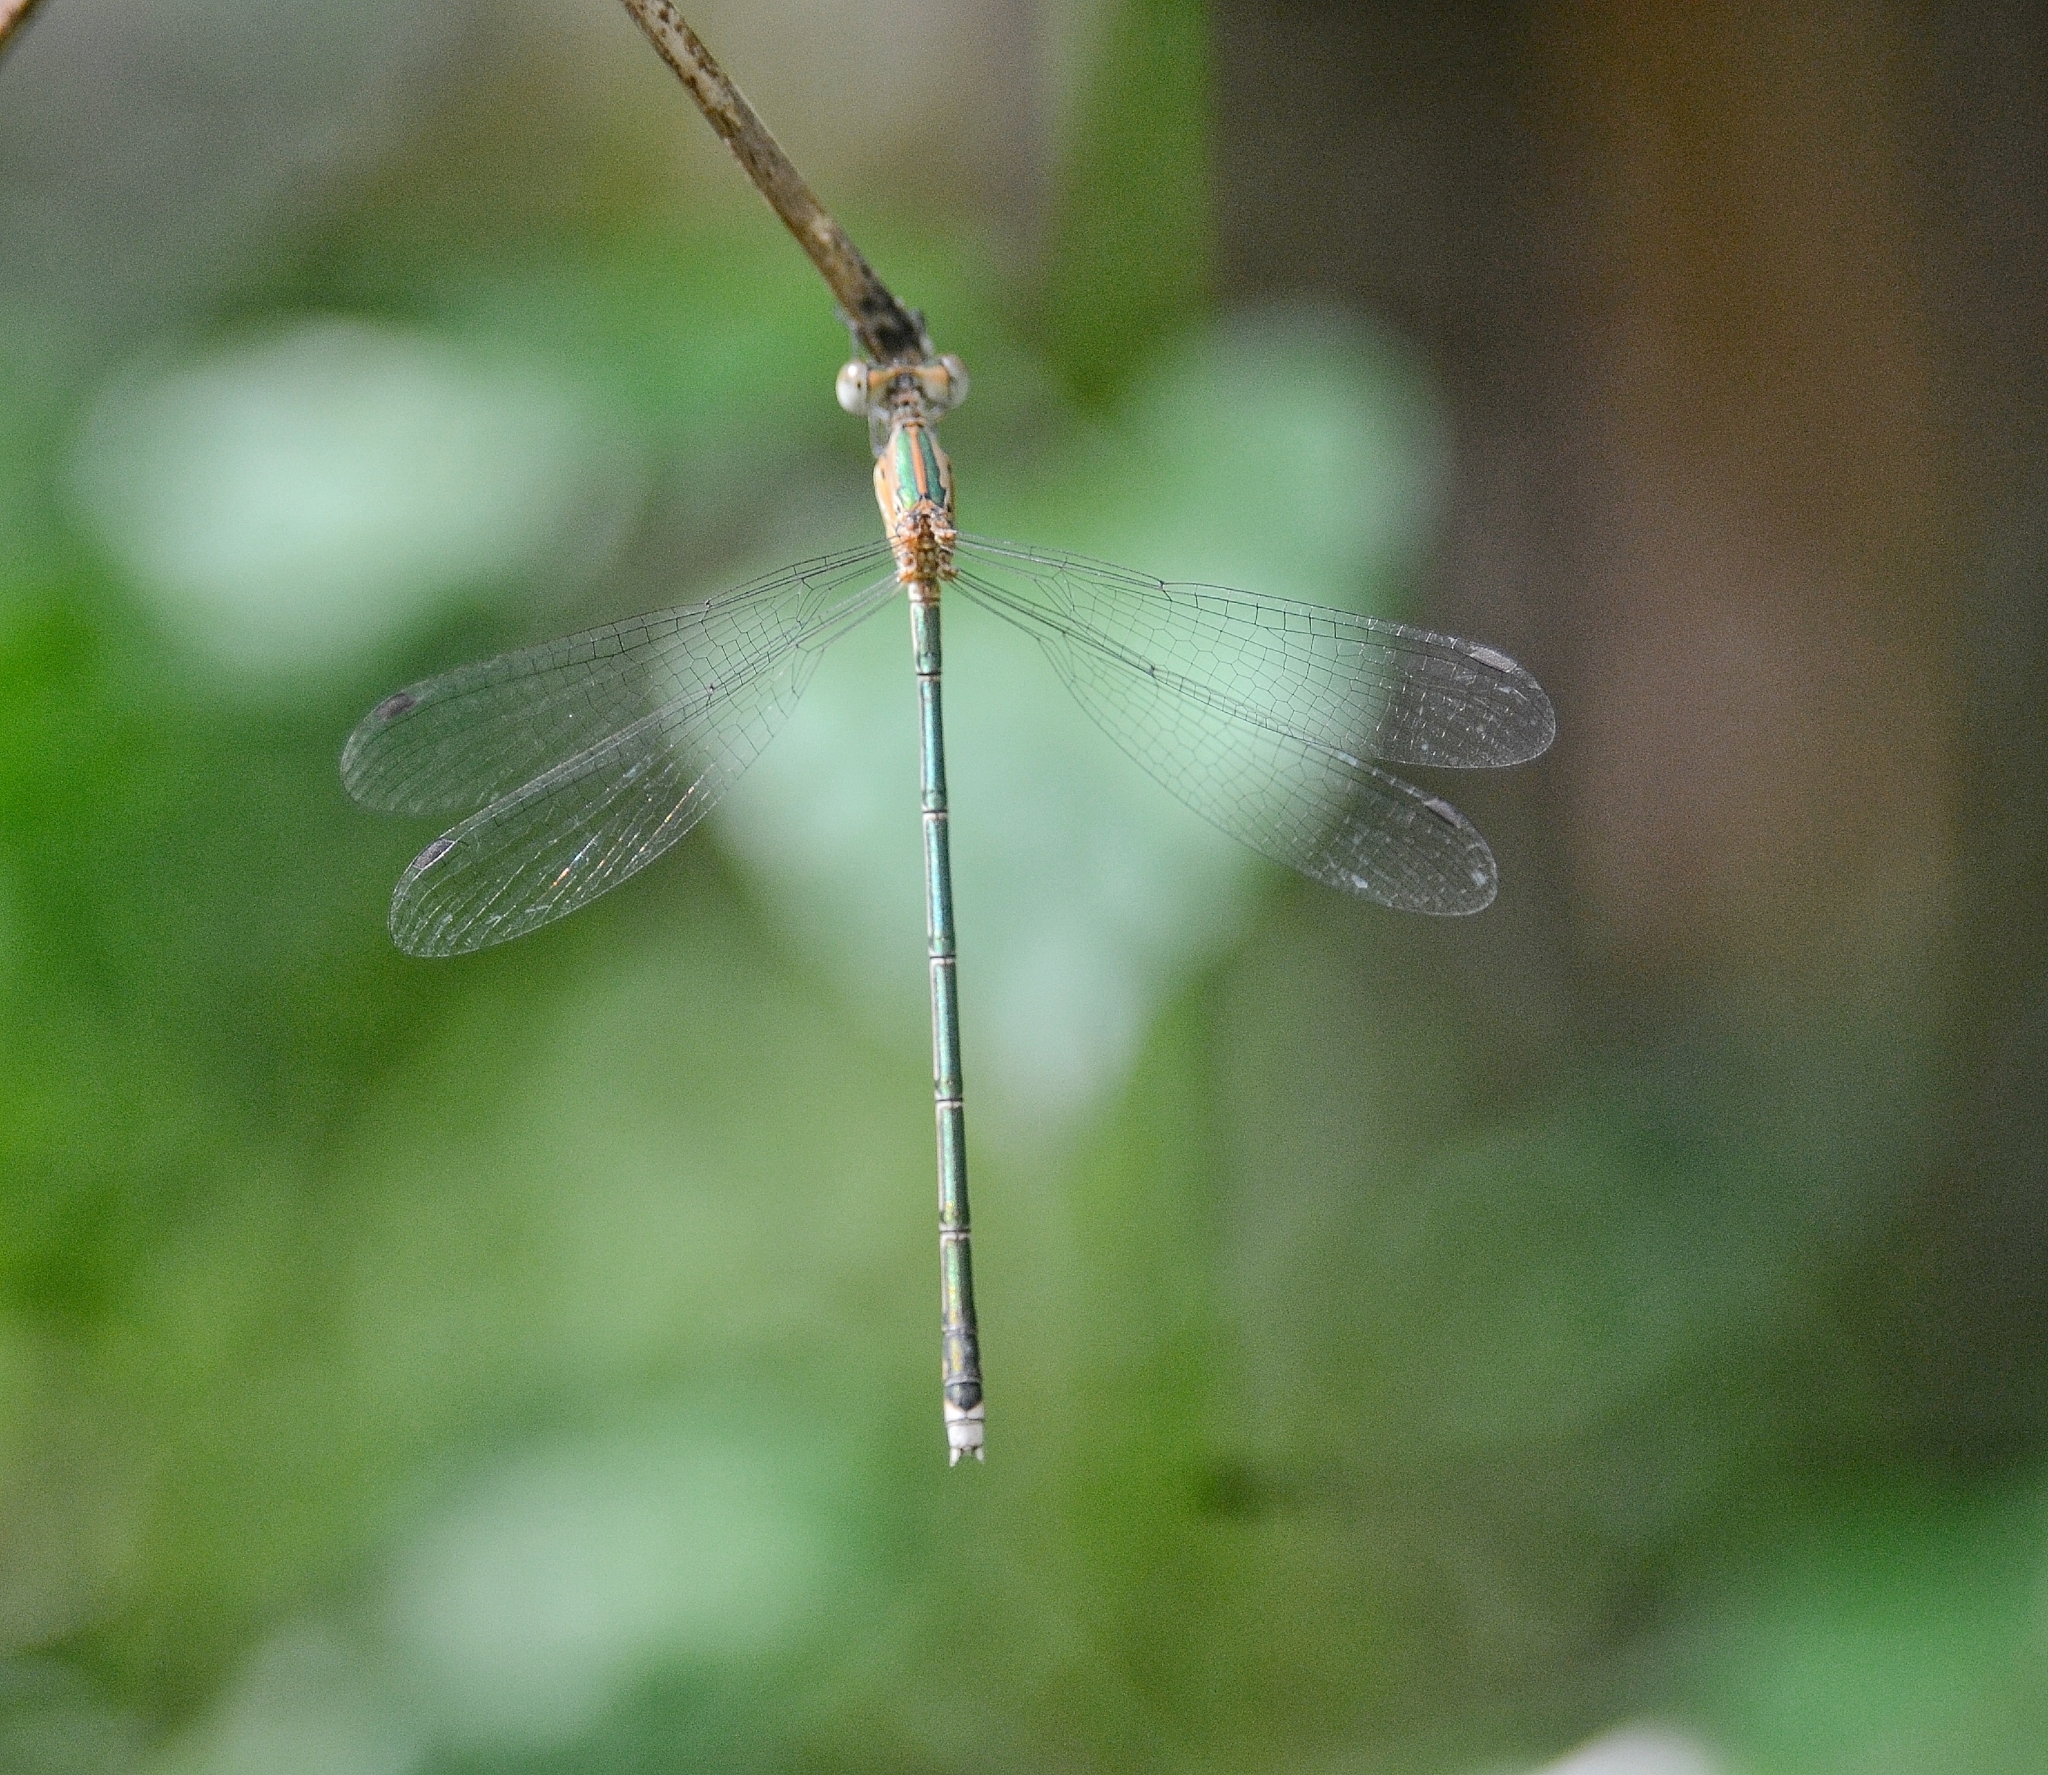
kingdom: Animalia
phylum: Arthropoda
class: Insecta
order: Odonata
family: Lestidae
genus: Lestes
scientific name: Lestes elatus
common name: Emerald spreadwing
